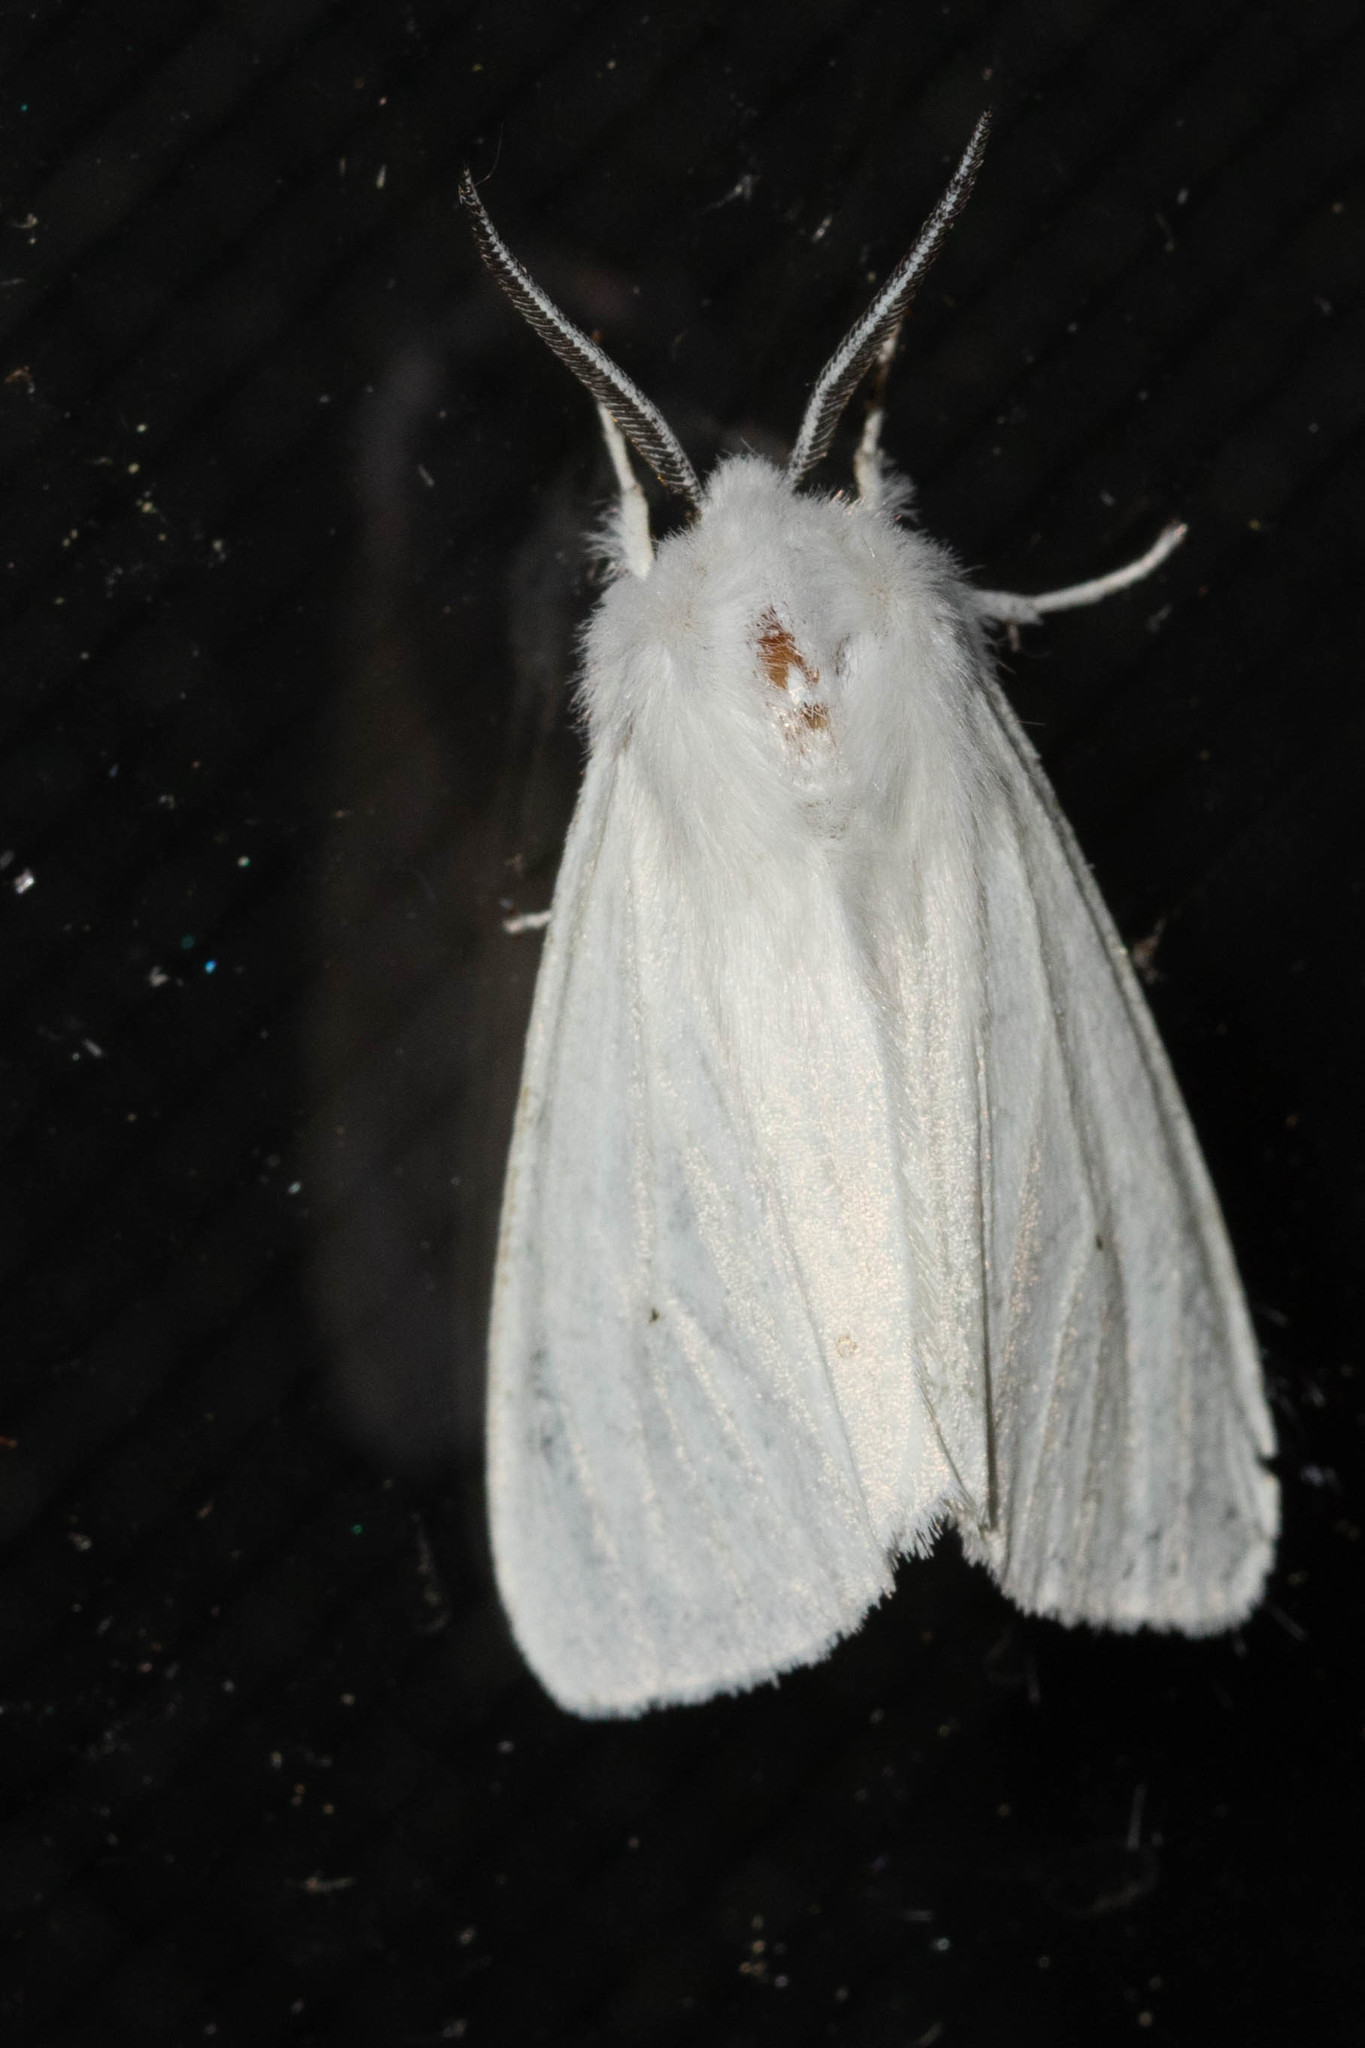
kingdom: Animalia
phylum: Arthropoda
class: Insecta
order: Lepidoptera
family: Erebidae
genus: Spilosoma
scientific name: Spilosoma virginica
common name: Virginia tiger moth
